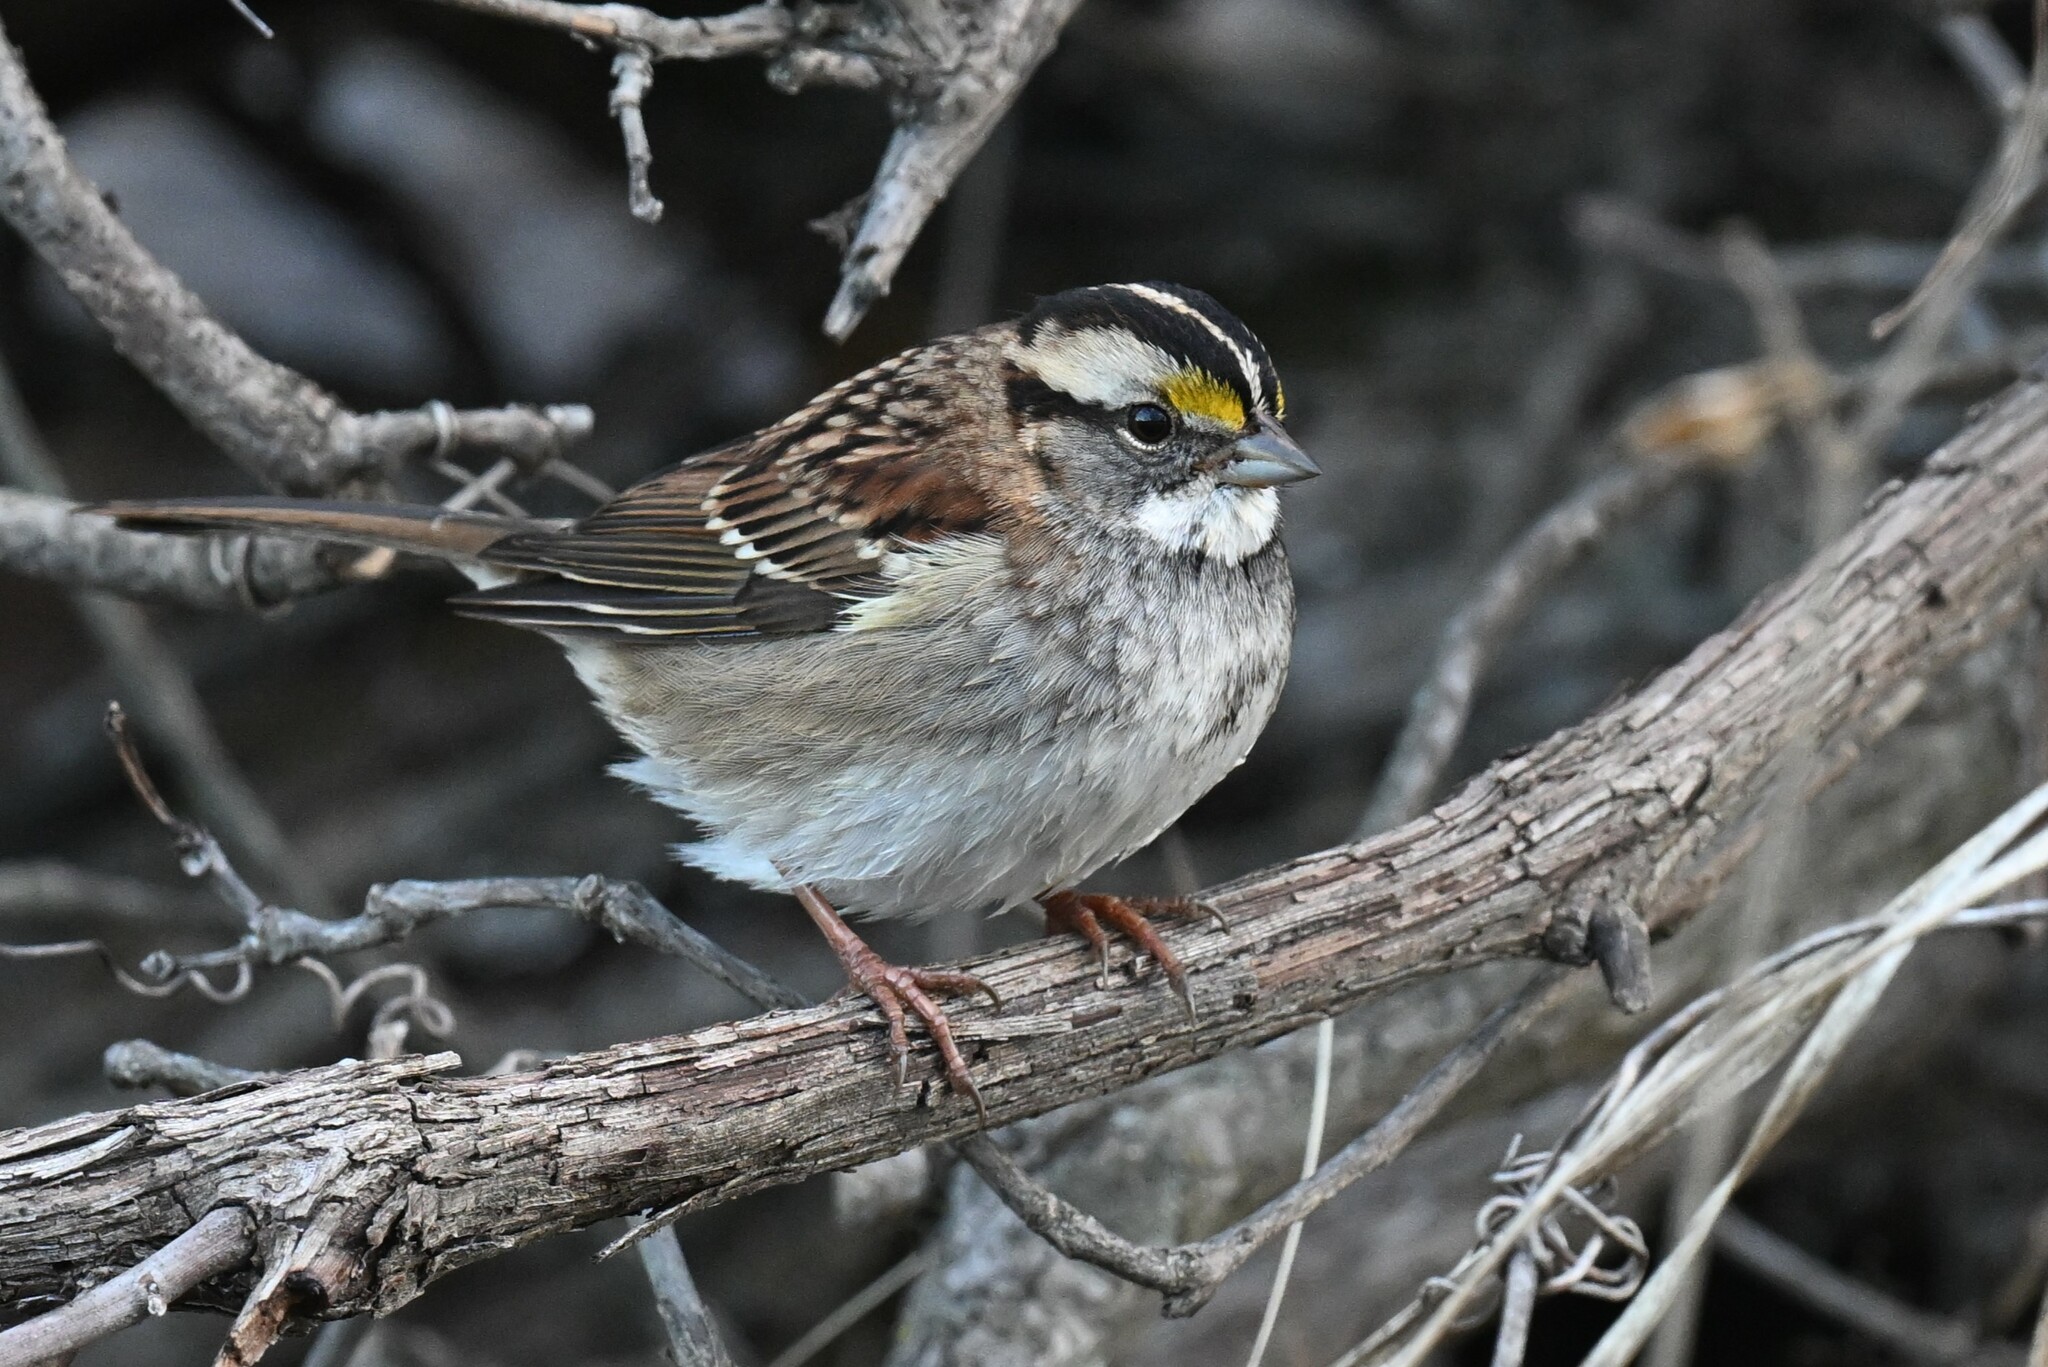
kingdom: Animalia
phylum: Chordata
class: Aves
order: Passeriformes
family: Passerellidae
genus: Zonotrichia
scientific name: Zonotrichia albicollis
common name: White-throated sparrow
